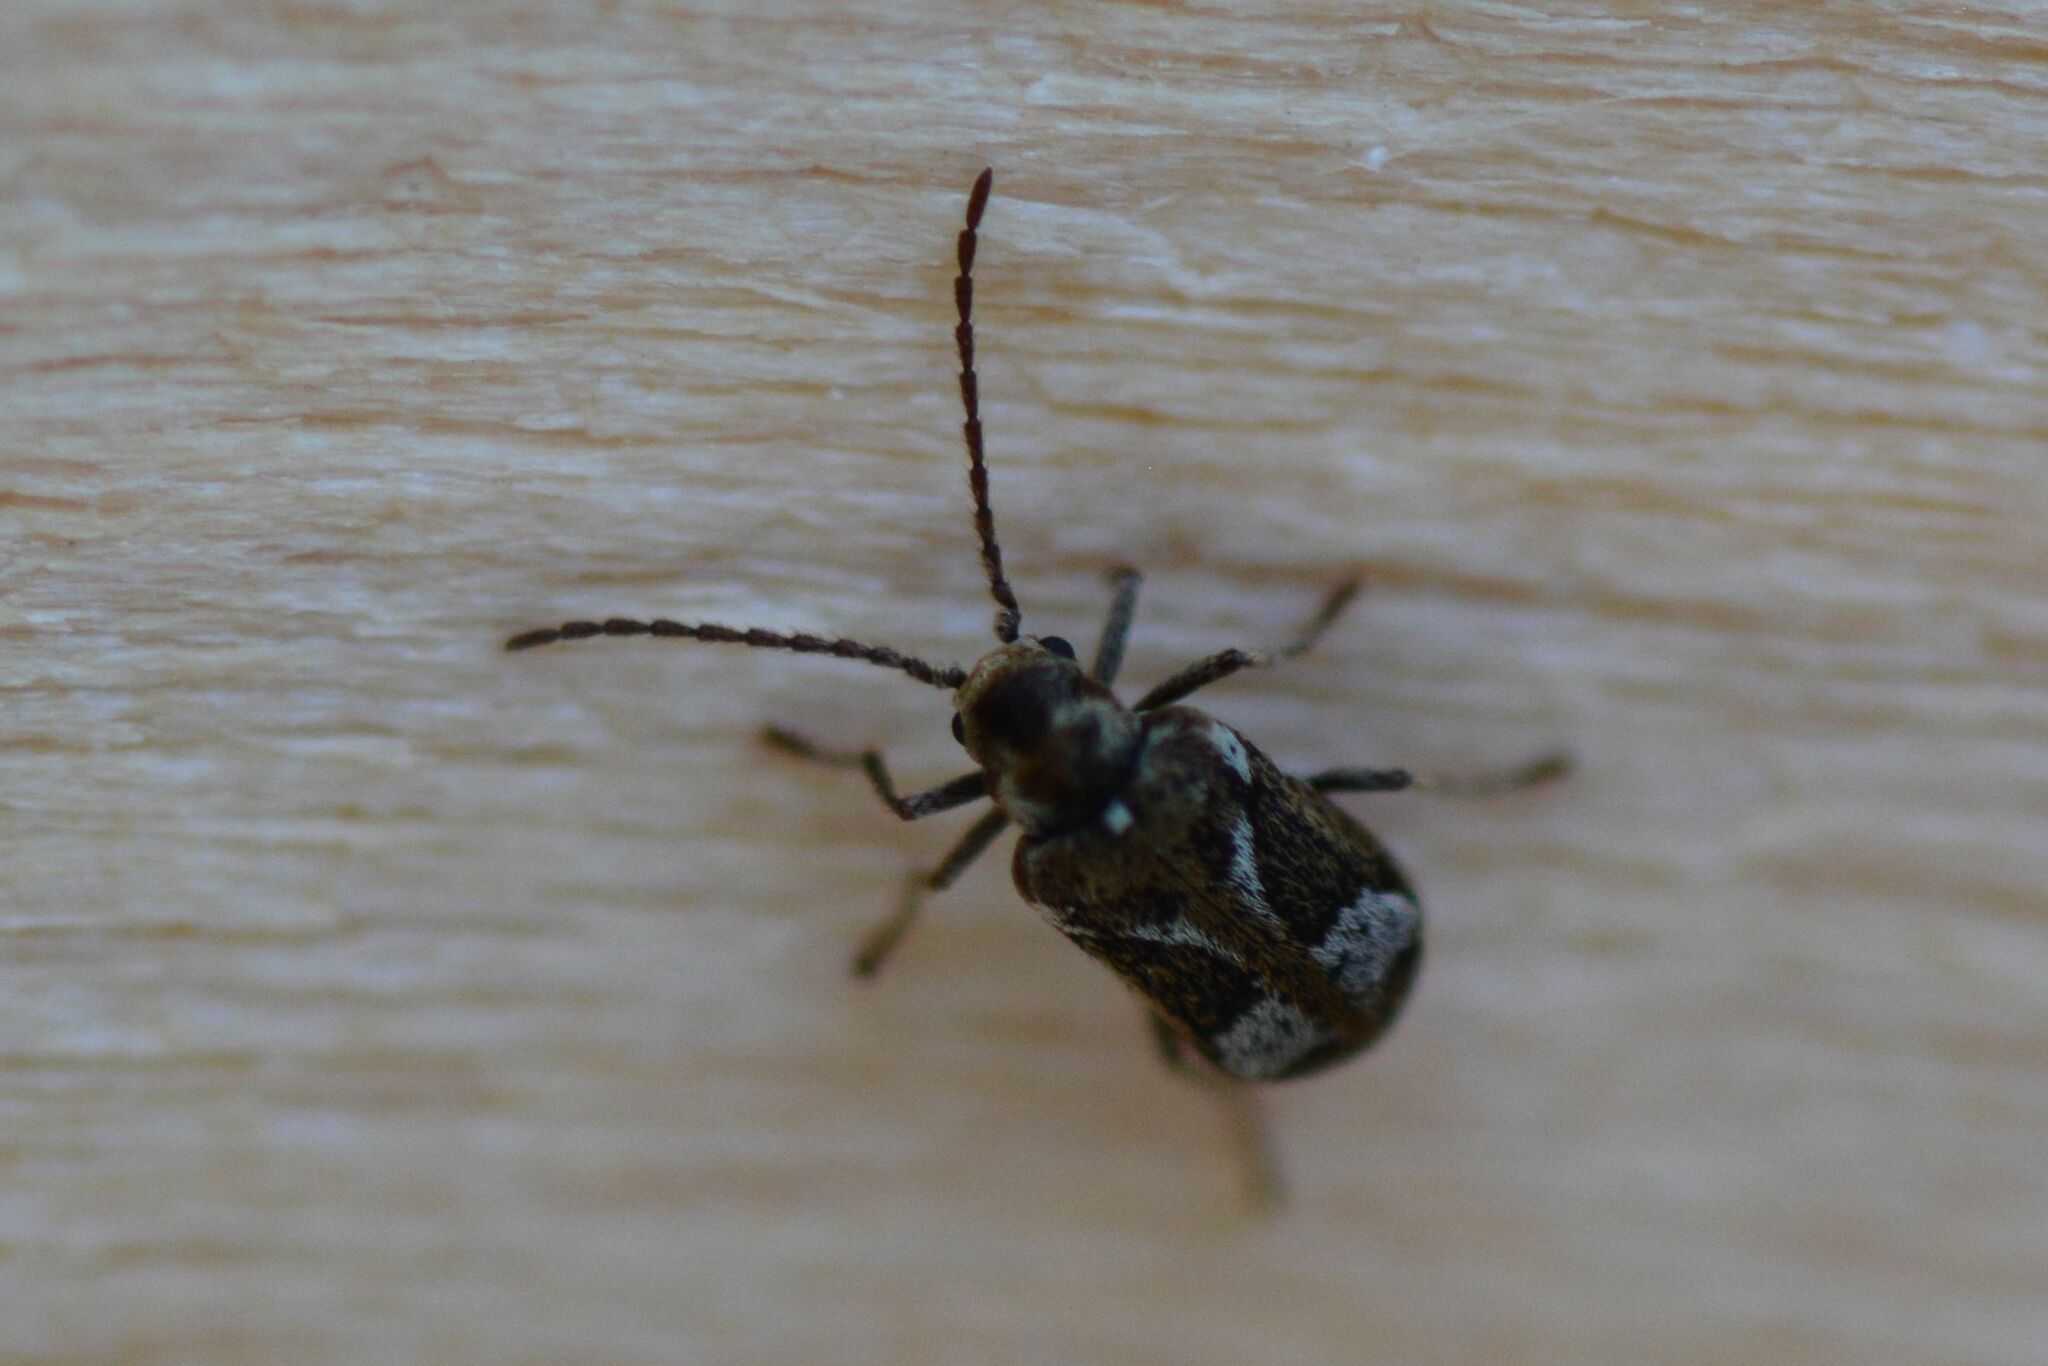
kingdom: Animalia
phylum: Arthropoda
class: Insecta
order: Coleoptera
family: Anobiidae
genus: Ptinomorphus
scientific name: Ptinomorphus imperialis
